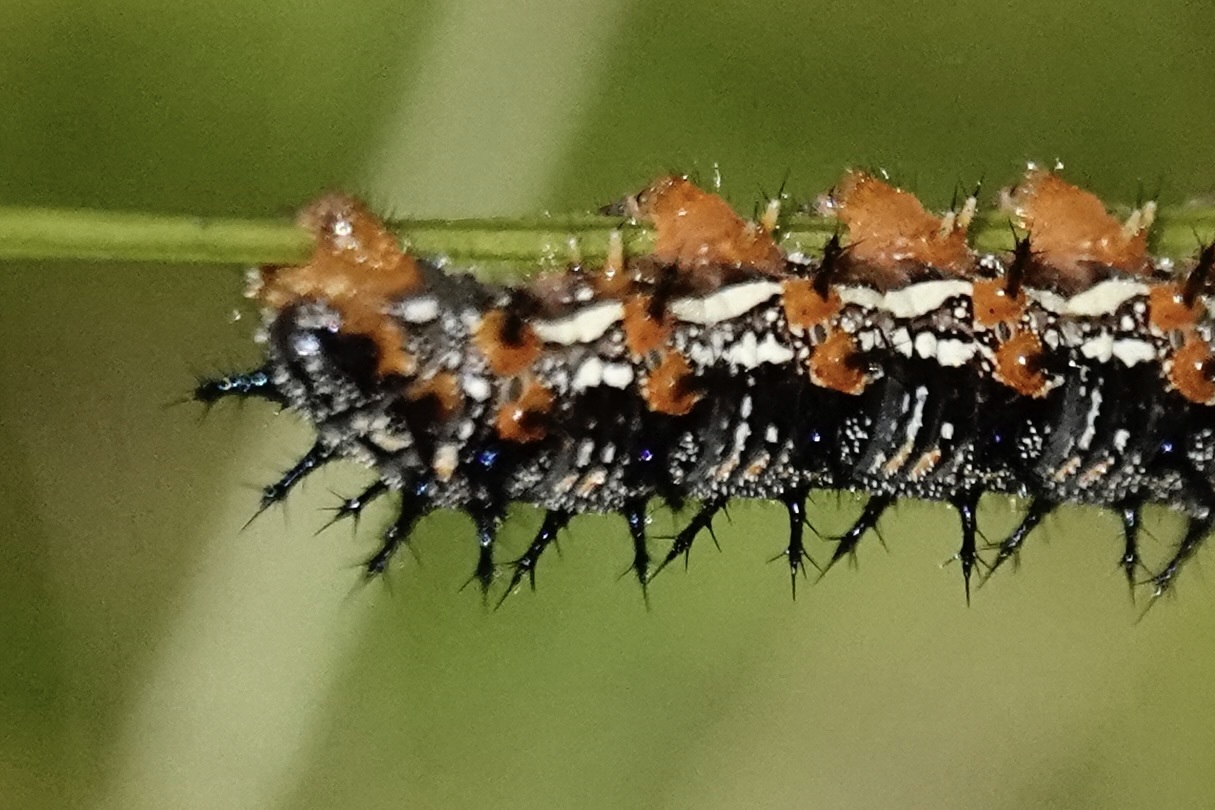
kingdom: Animalia
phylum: Arthropoda
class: Insecta
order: Lepidoptera
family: Nymphalidae
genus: Junonia
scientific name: Junonia coenia
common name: Common buckeye
